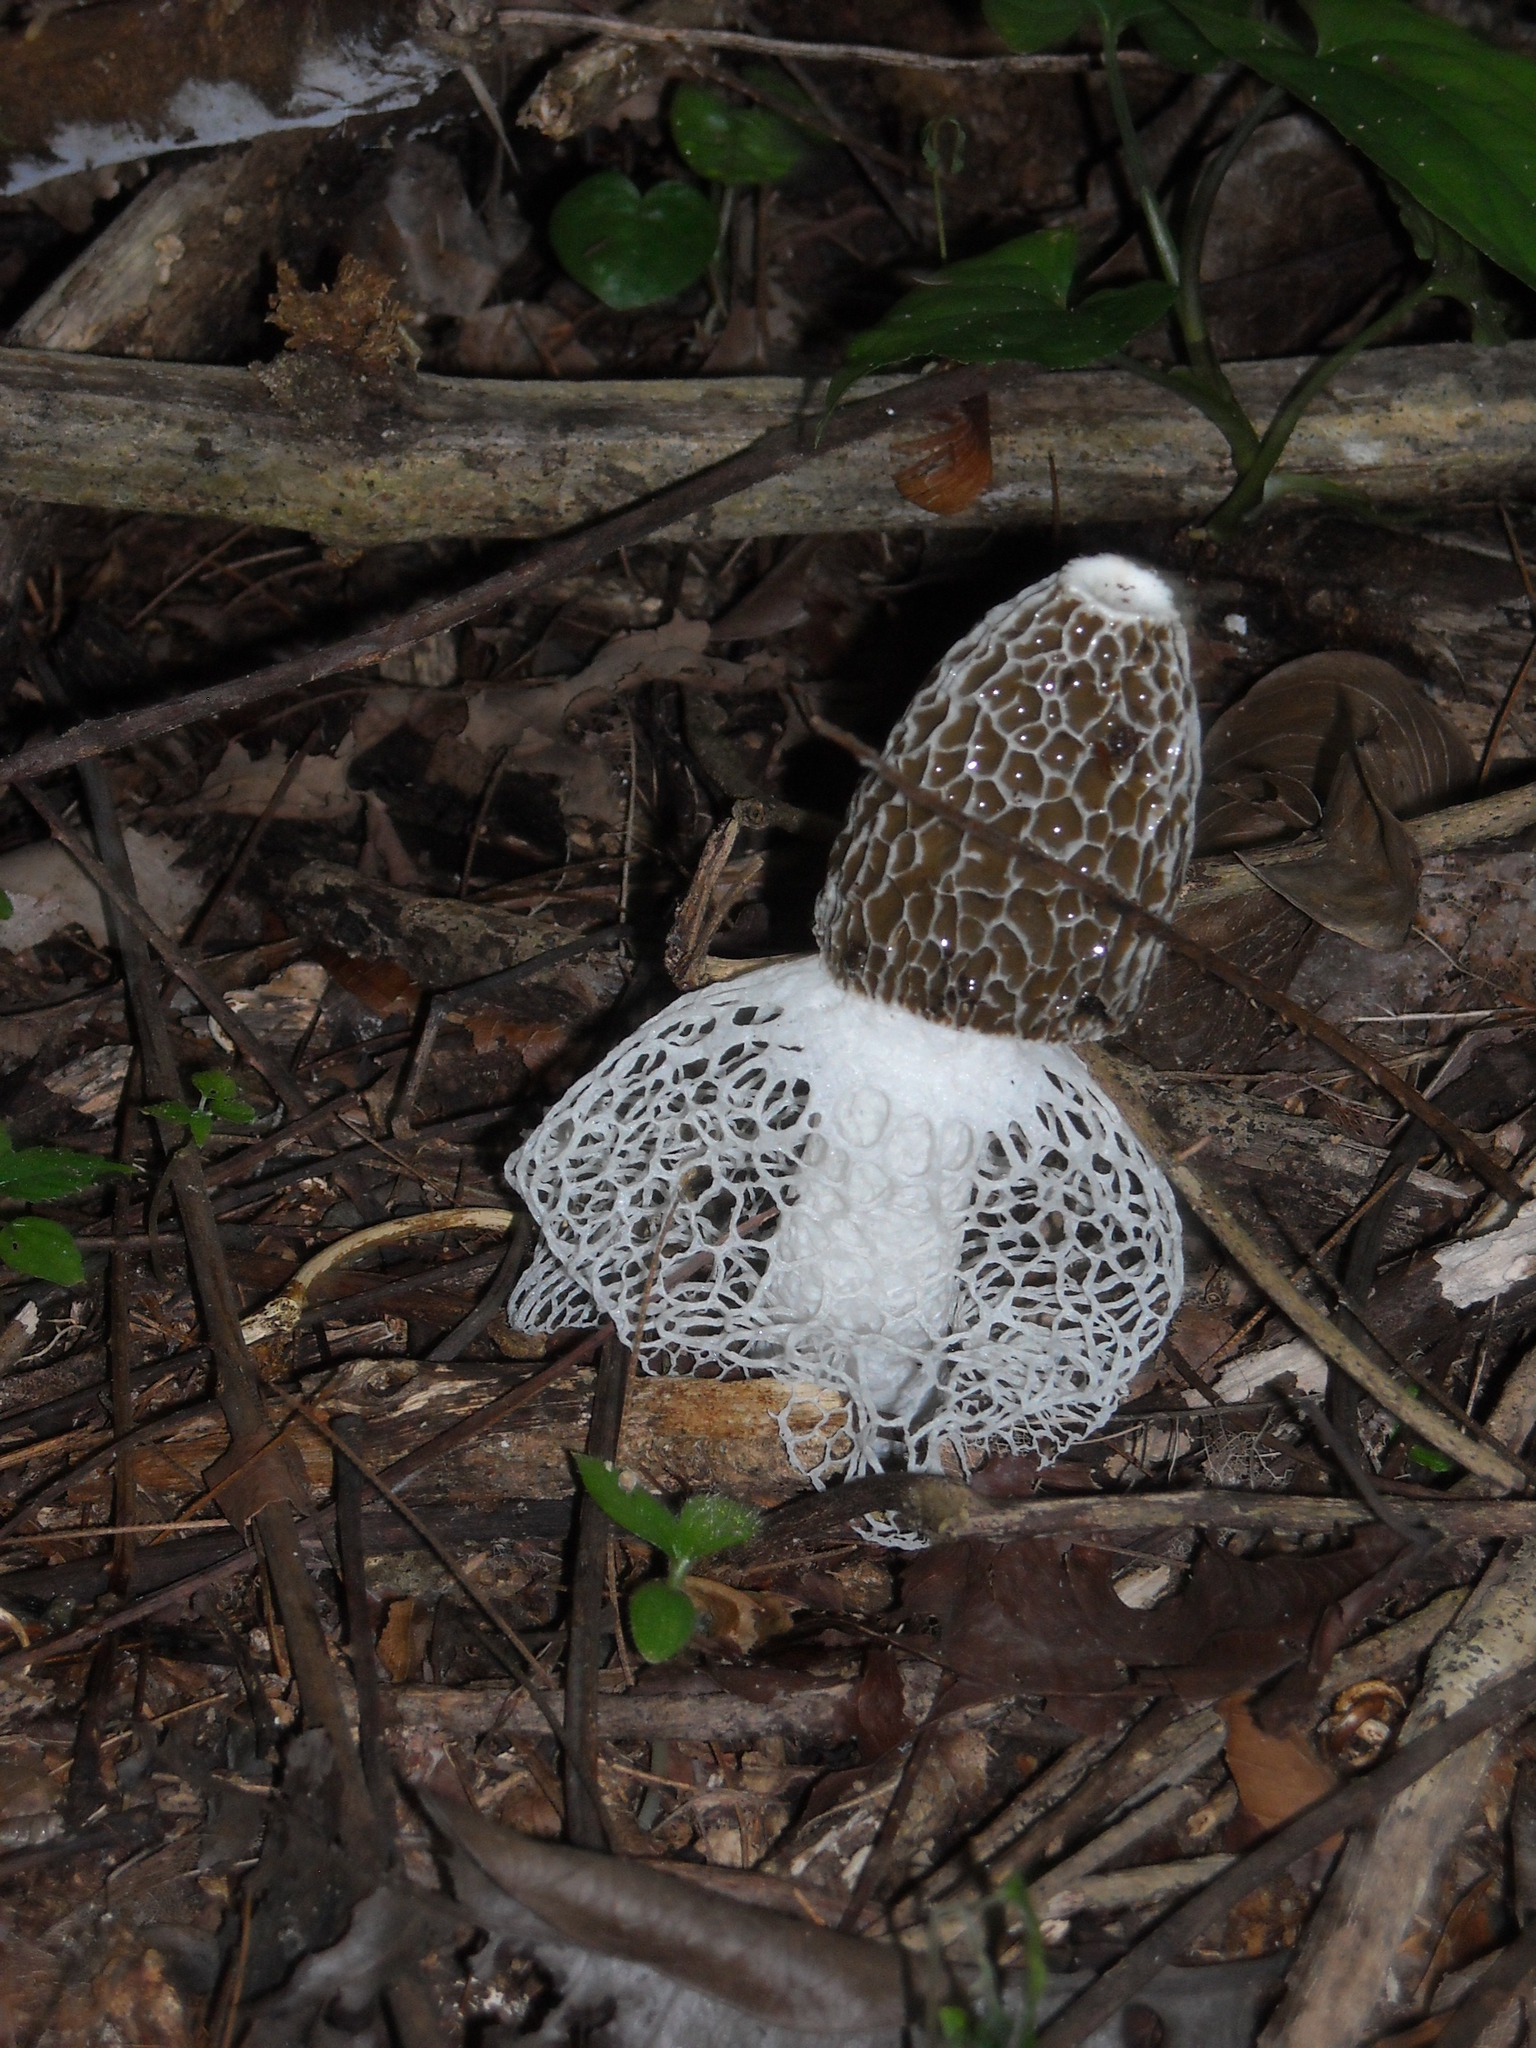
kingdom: Fungi
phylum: Basidiomycota
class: Agaricomycetes
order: Phallales
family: Phallaceae
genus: Phallus
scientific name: Phallus indusiatus
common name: Bridal veil stinkhorn
